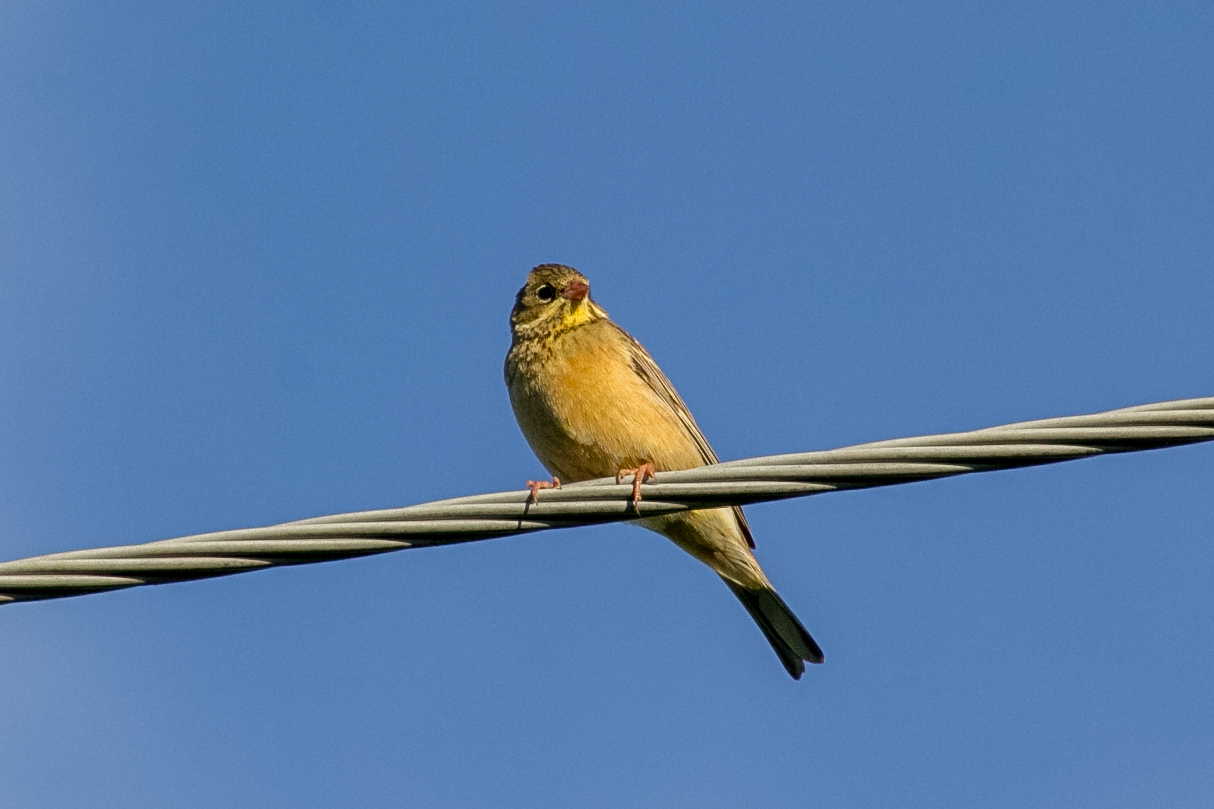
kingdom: Animalia
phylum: Chordata
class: Aves
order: Passeriformes
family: Emberizidae
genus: Emberiza
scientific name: Emberiza hortulana
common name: Ortolan bunting
